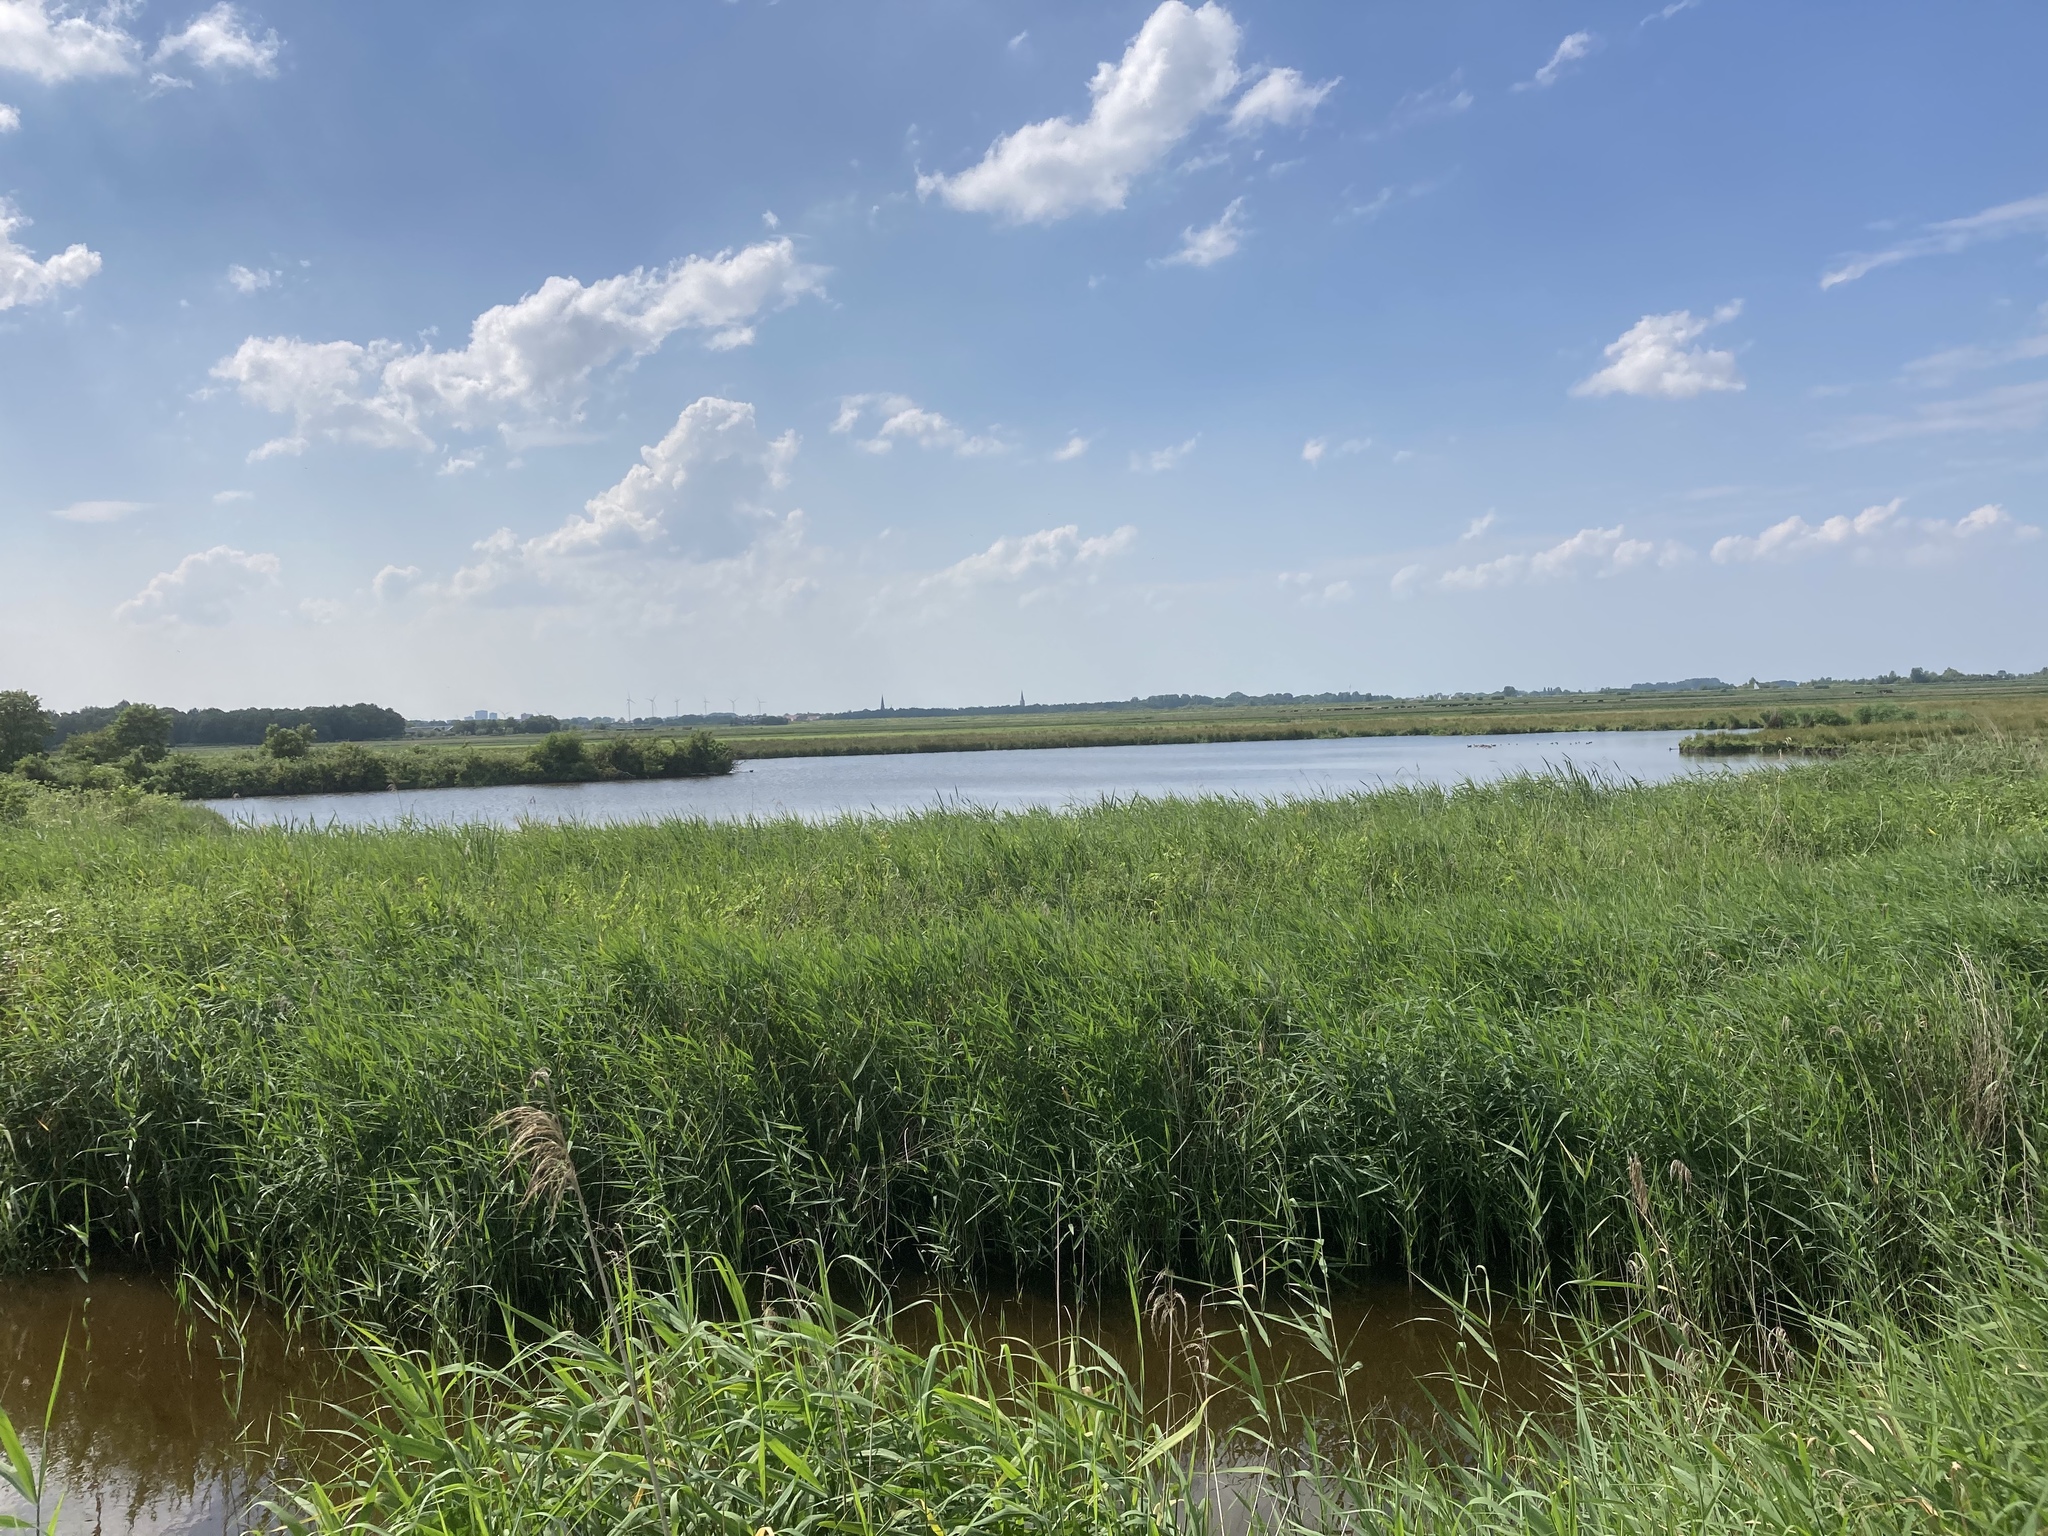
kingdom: Plantae
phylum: Tracheophyta
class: Liliopsida
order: Poales
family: Poaceae
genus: Phragmites
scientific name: Phragmites australis
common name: Common reed
